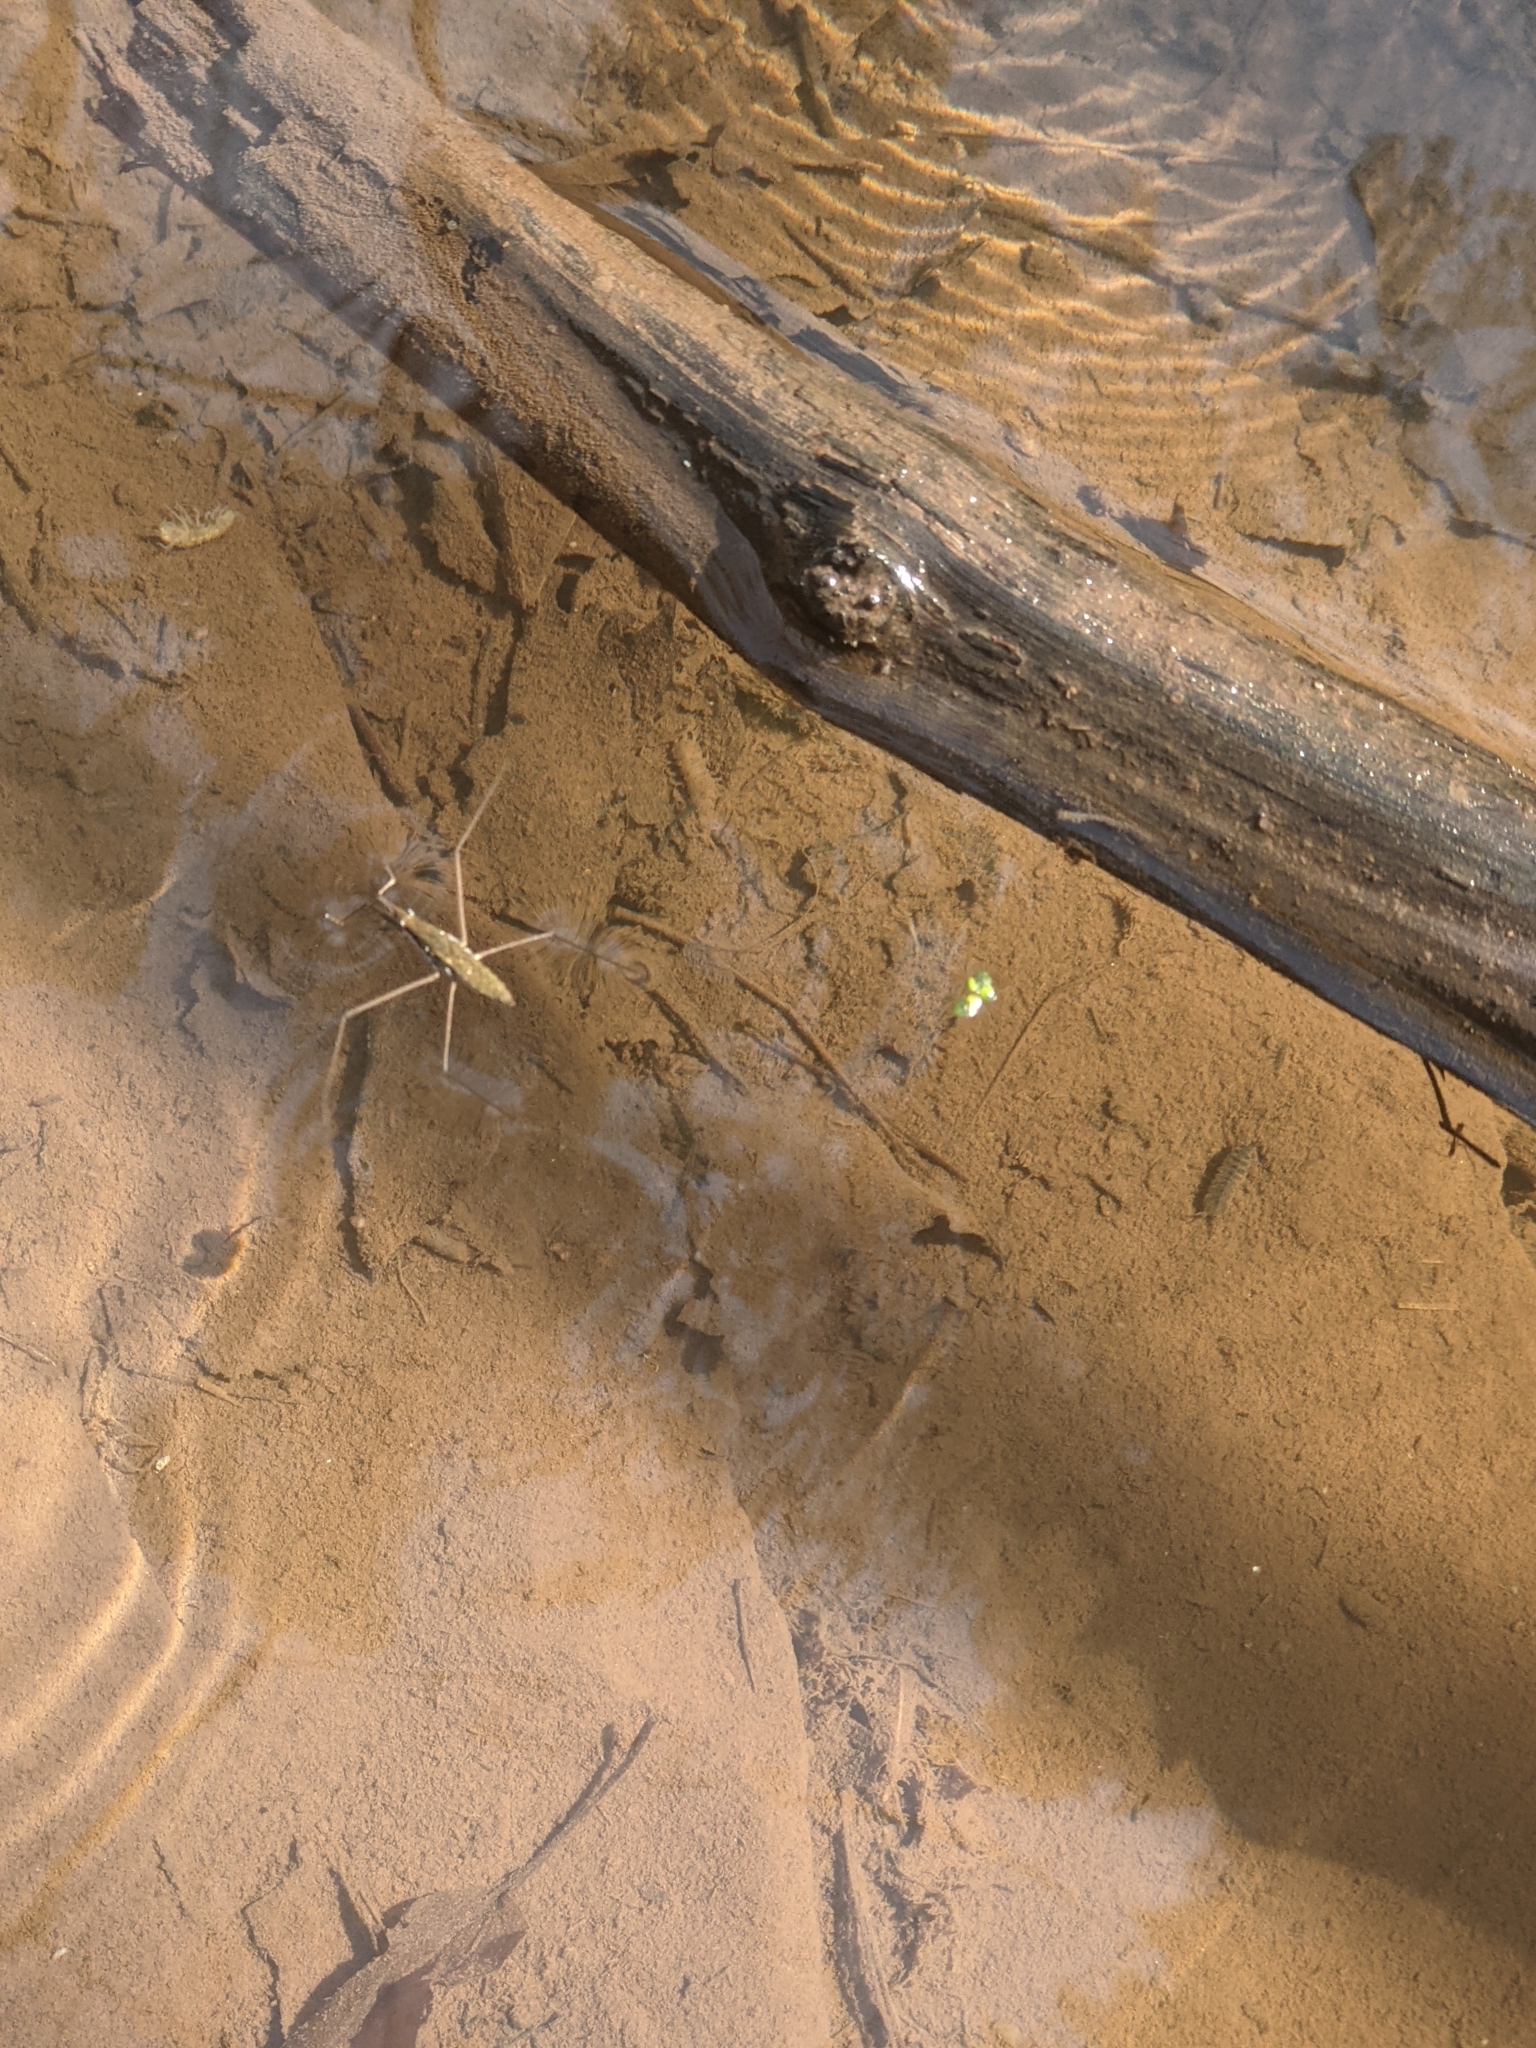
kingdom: Animalia
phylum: Arthropoda
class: Insecta
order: Hemiptera
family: Gerridae
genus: Aquarius
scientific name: Aquarius remigis
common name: Common water strider
